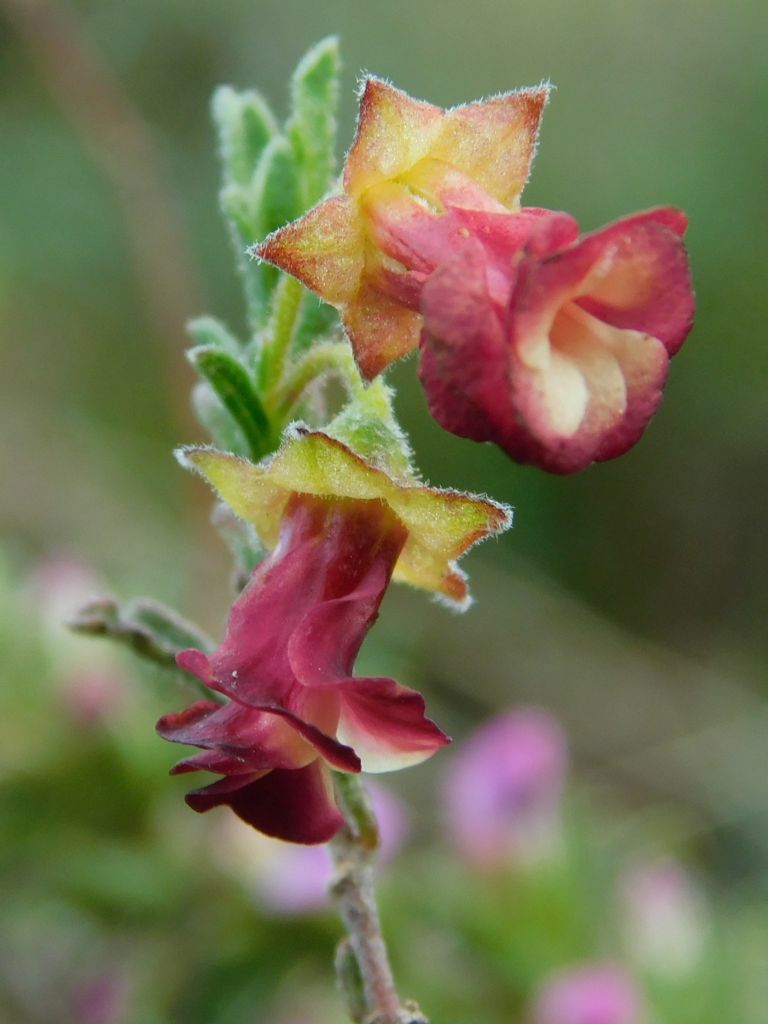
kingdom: Plantae
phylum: Tracheophyta
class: Magnoliopsida
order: Malvales
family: Malvaceae
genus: Hermannia
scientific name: Hermannia flammula
